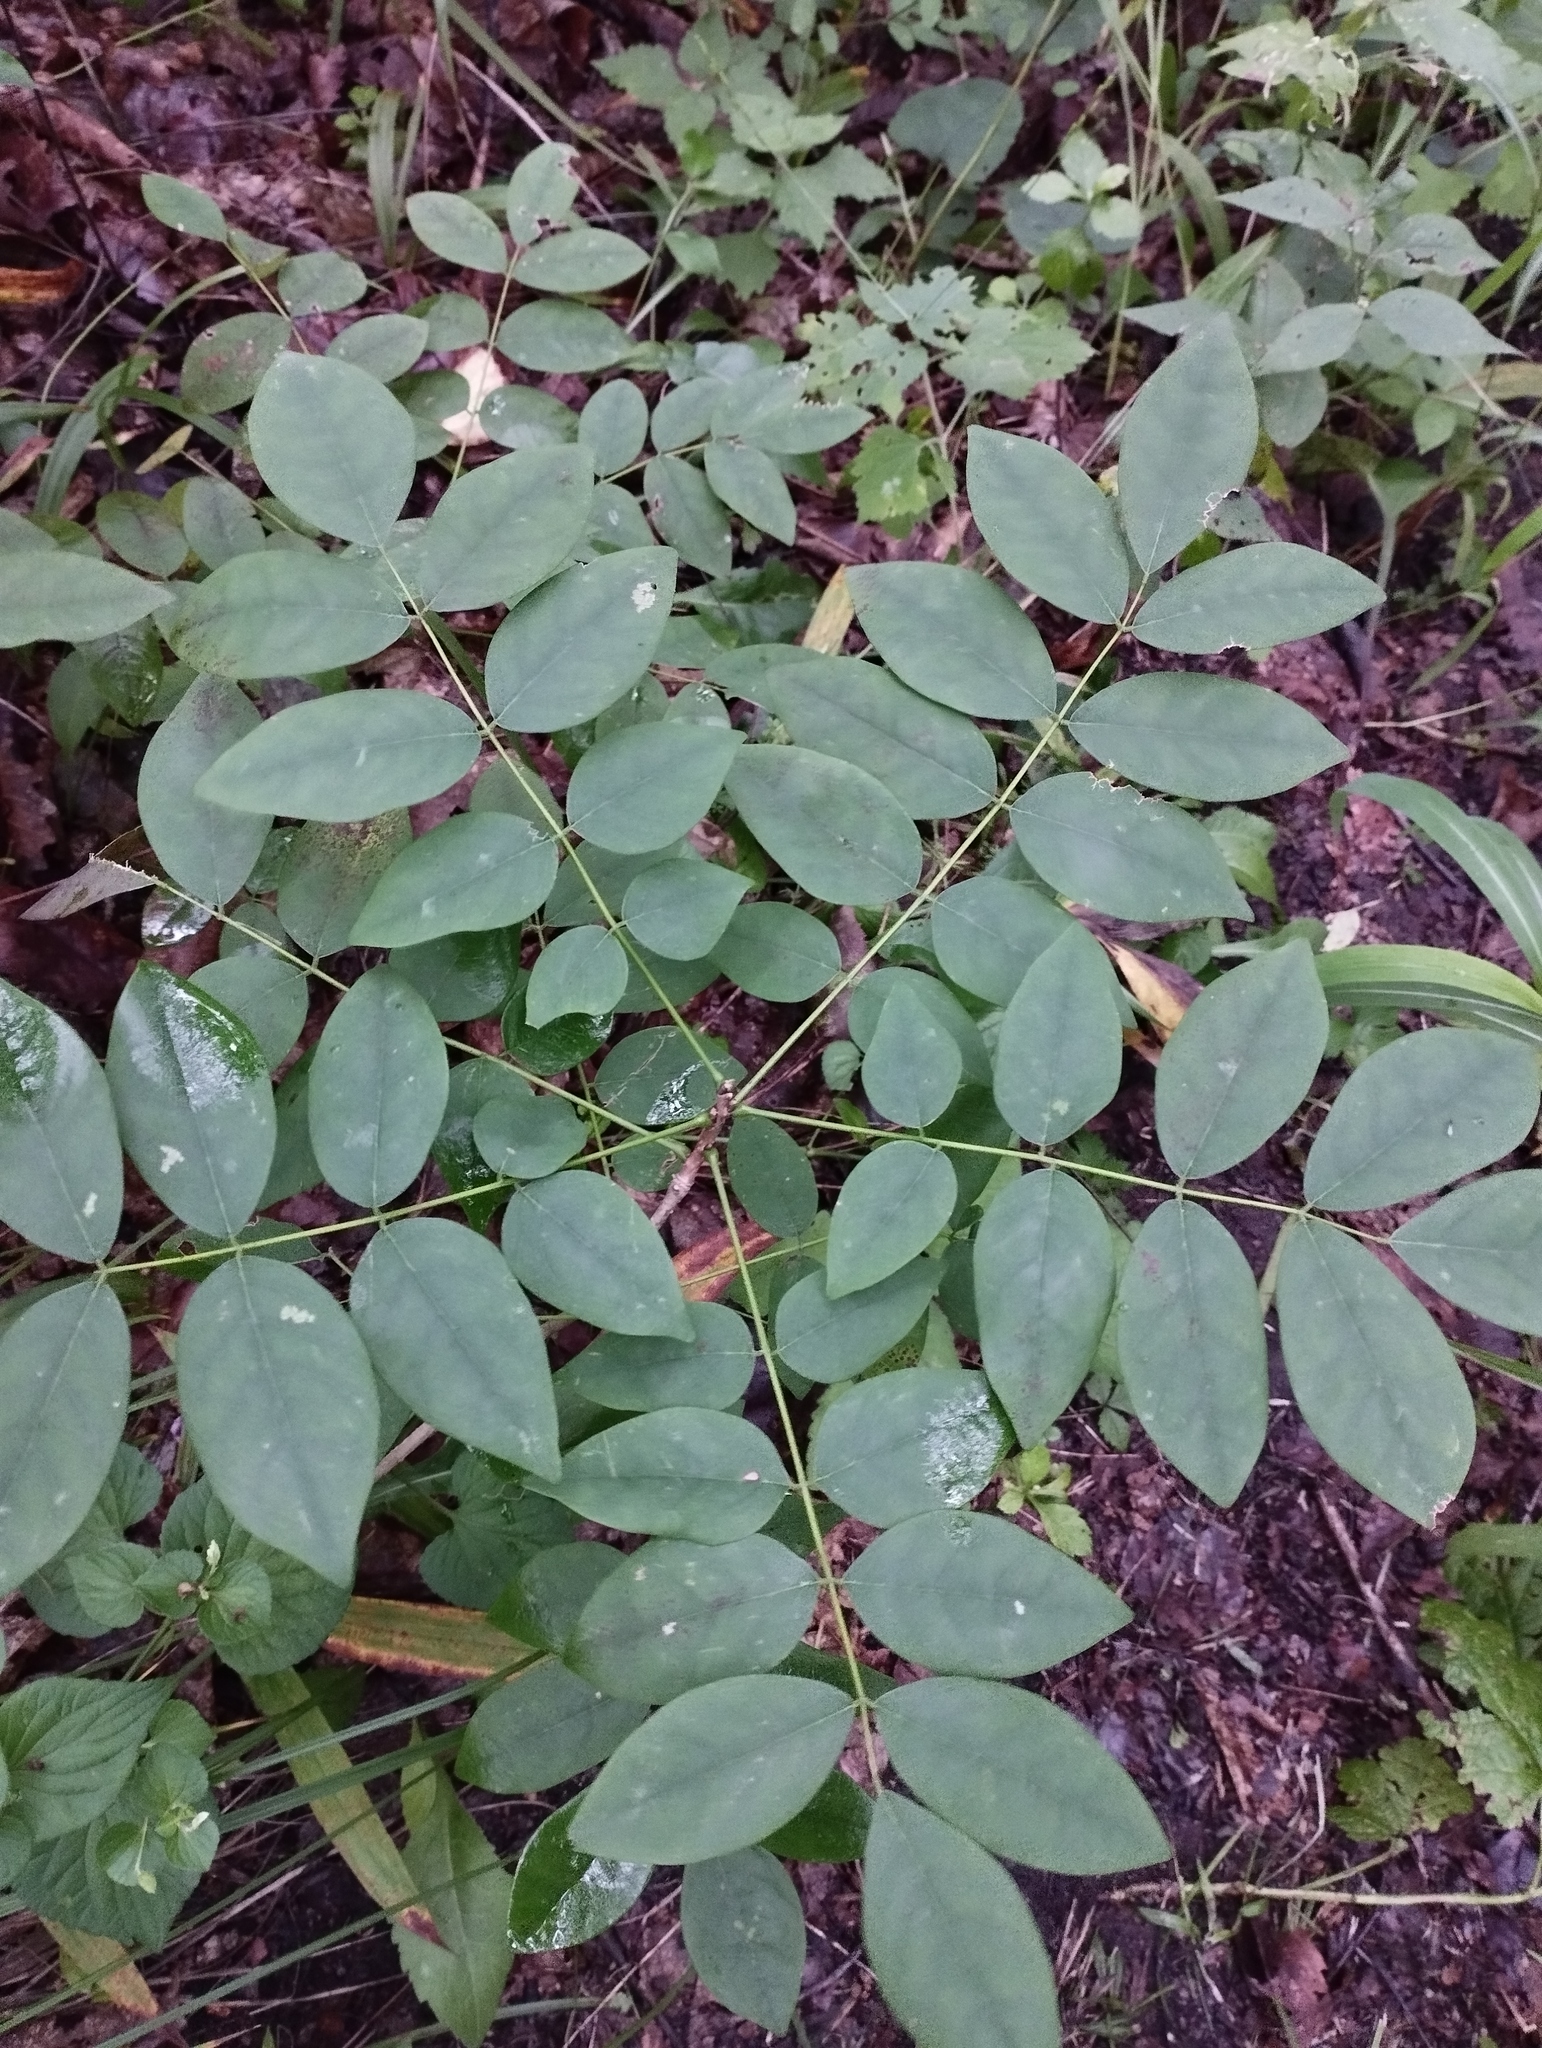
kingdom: Plantae
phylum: Tracheophyta
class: Magnoliopsida
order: Fabales
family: Fabaceae
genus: Maackia
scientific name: Maackia amurensis
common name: Amur maackia
